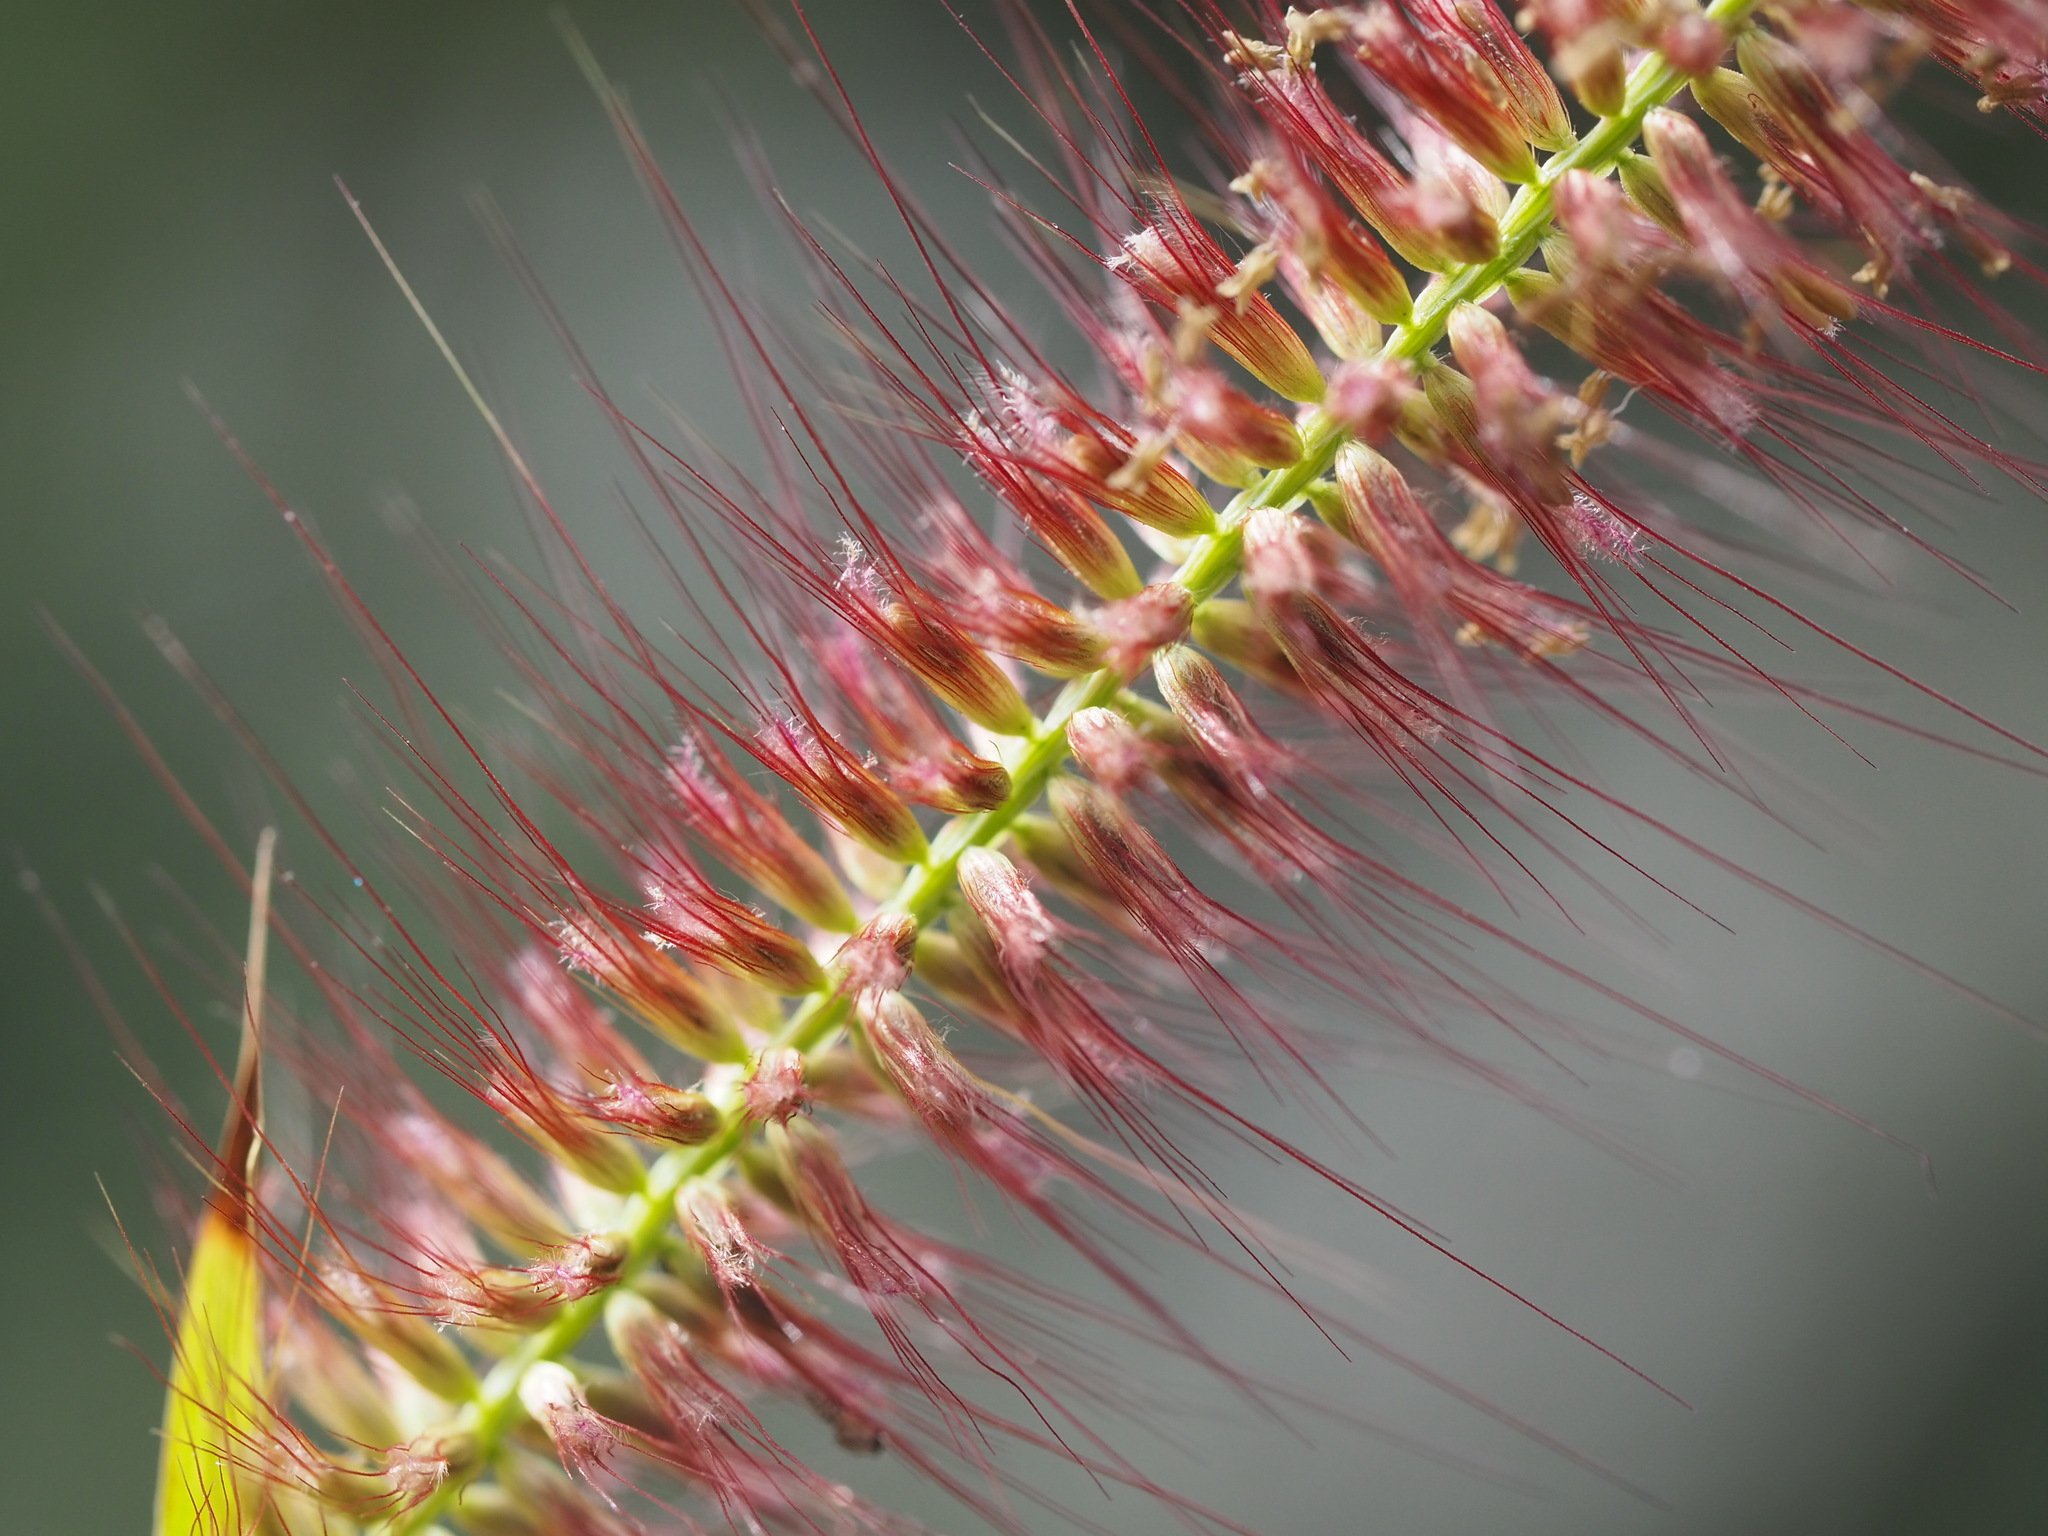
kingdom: Plantae
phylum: Tracheophyta
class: Liliopsida
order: Poales
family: Poaceae
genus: Cenchrus
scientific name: Cenchrus setosus
